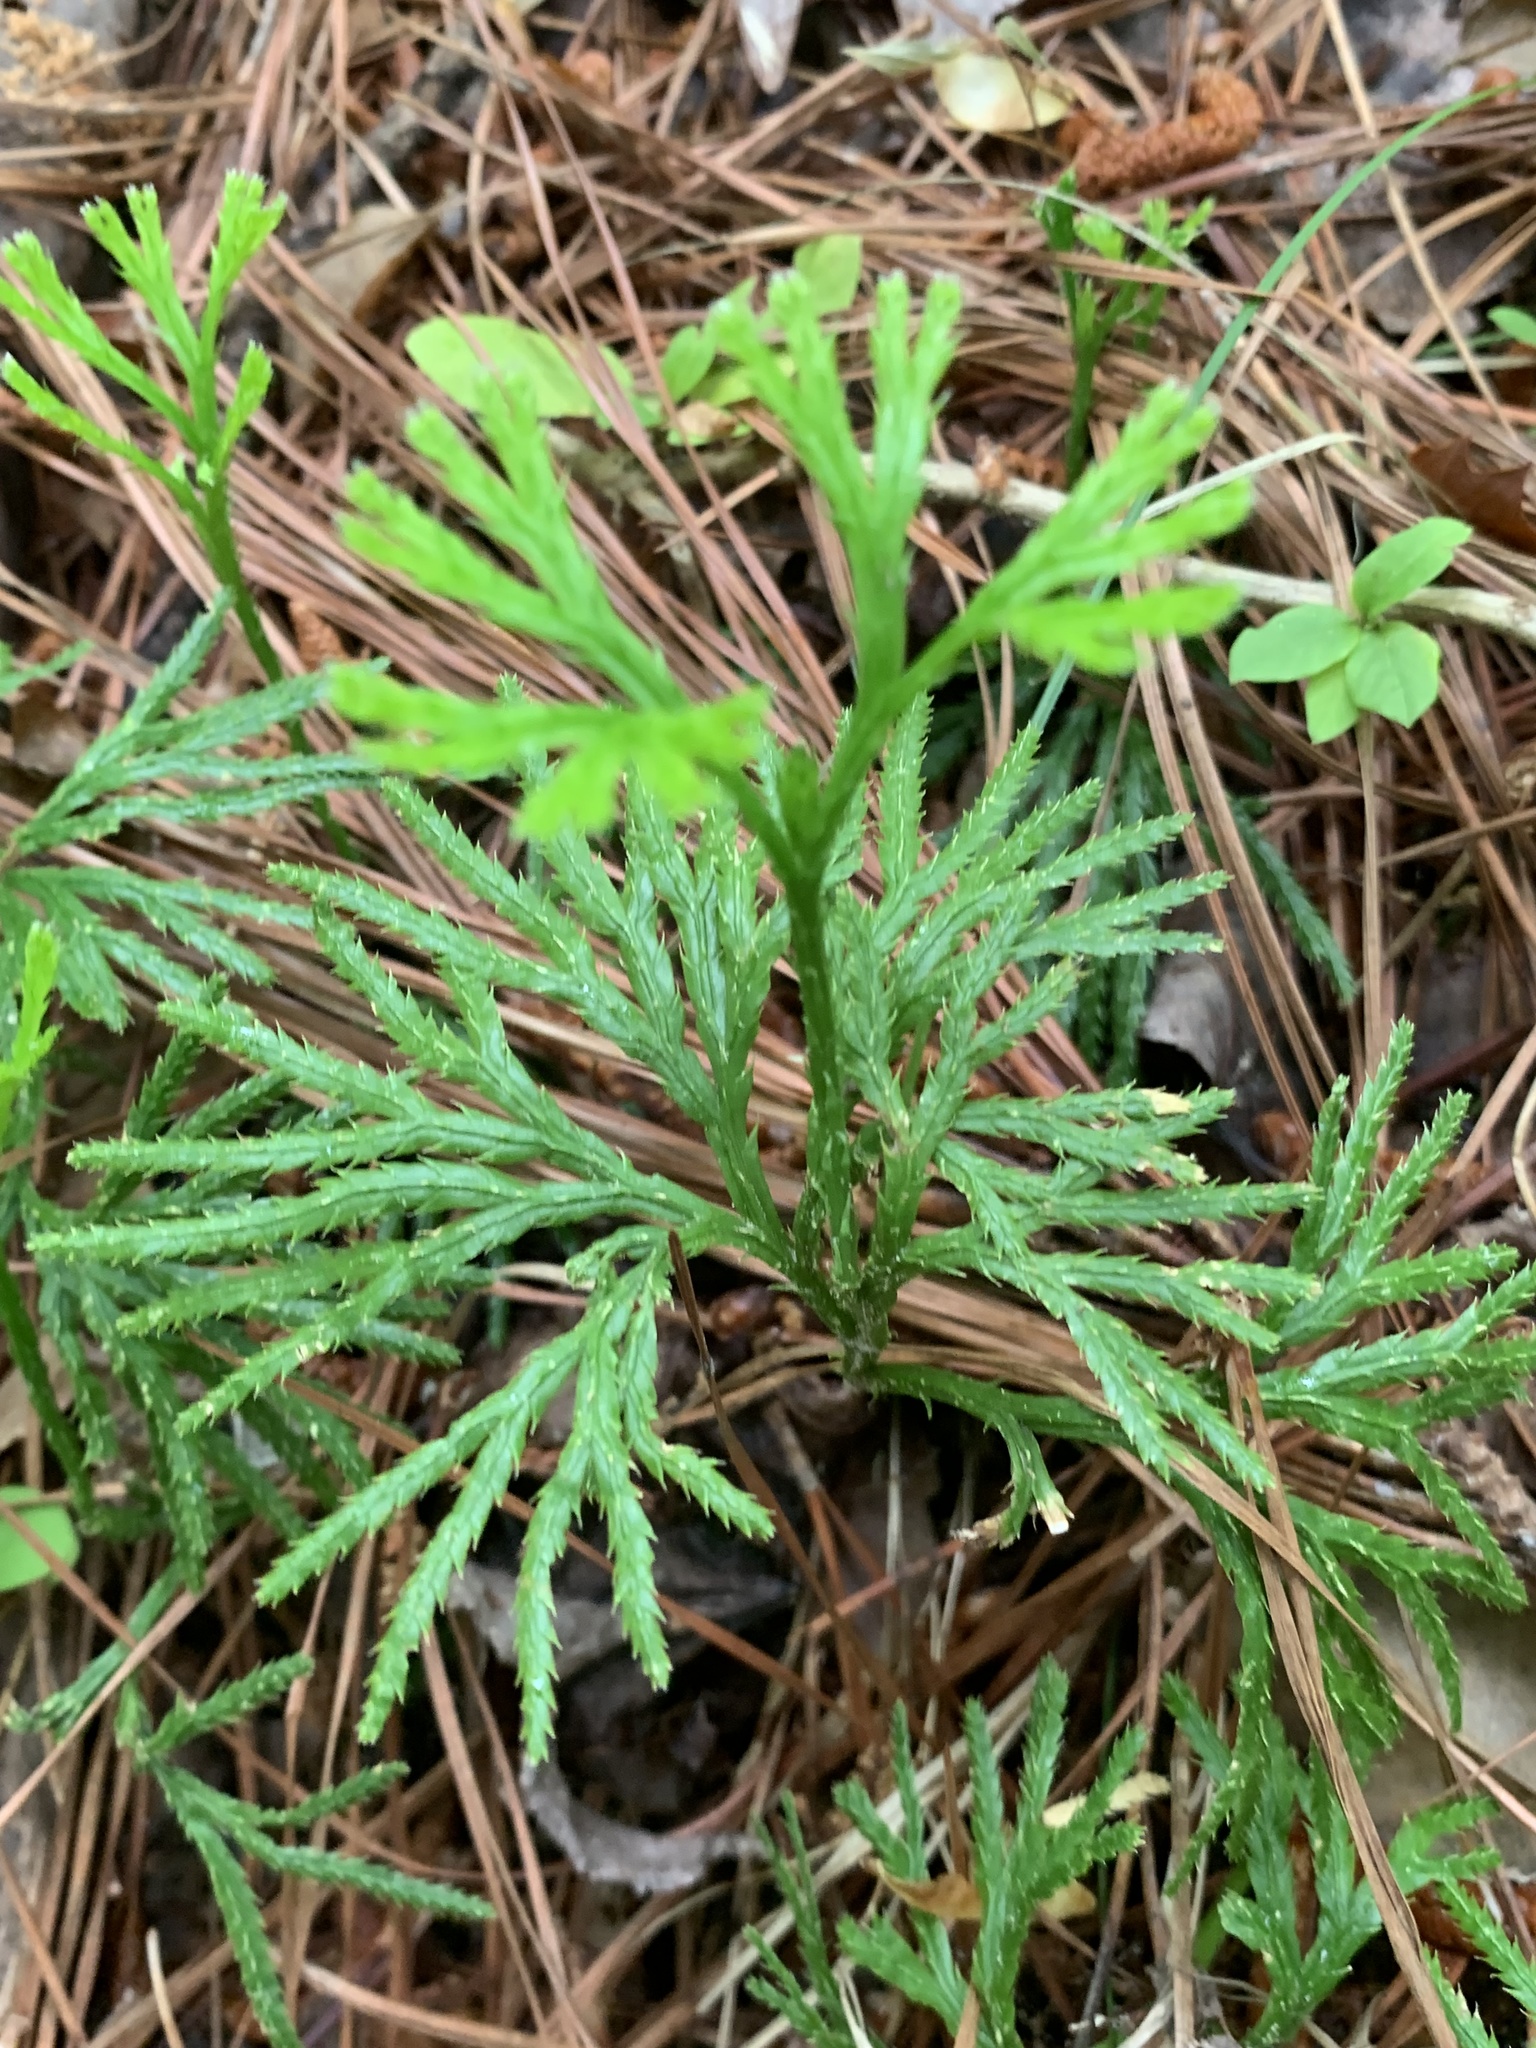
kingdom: Plantae
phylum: Tracheophyta
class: Lycopodiopsida
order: Lycopodiales
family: Lycopodiaceae
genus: Diphasiastrum
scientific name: Diphasiastrum digitatum
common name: Southern running-pine
